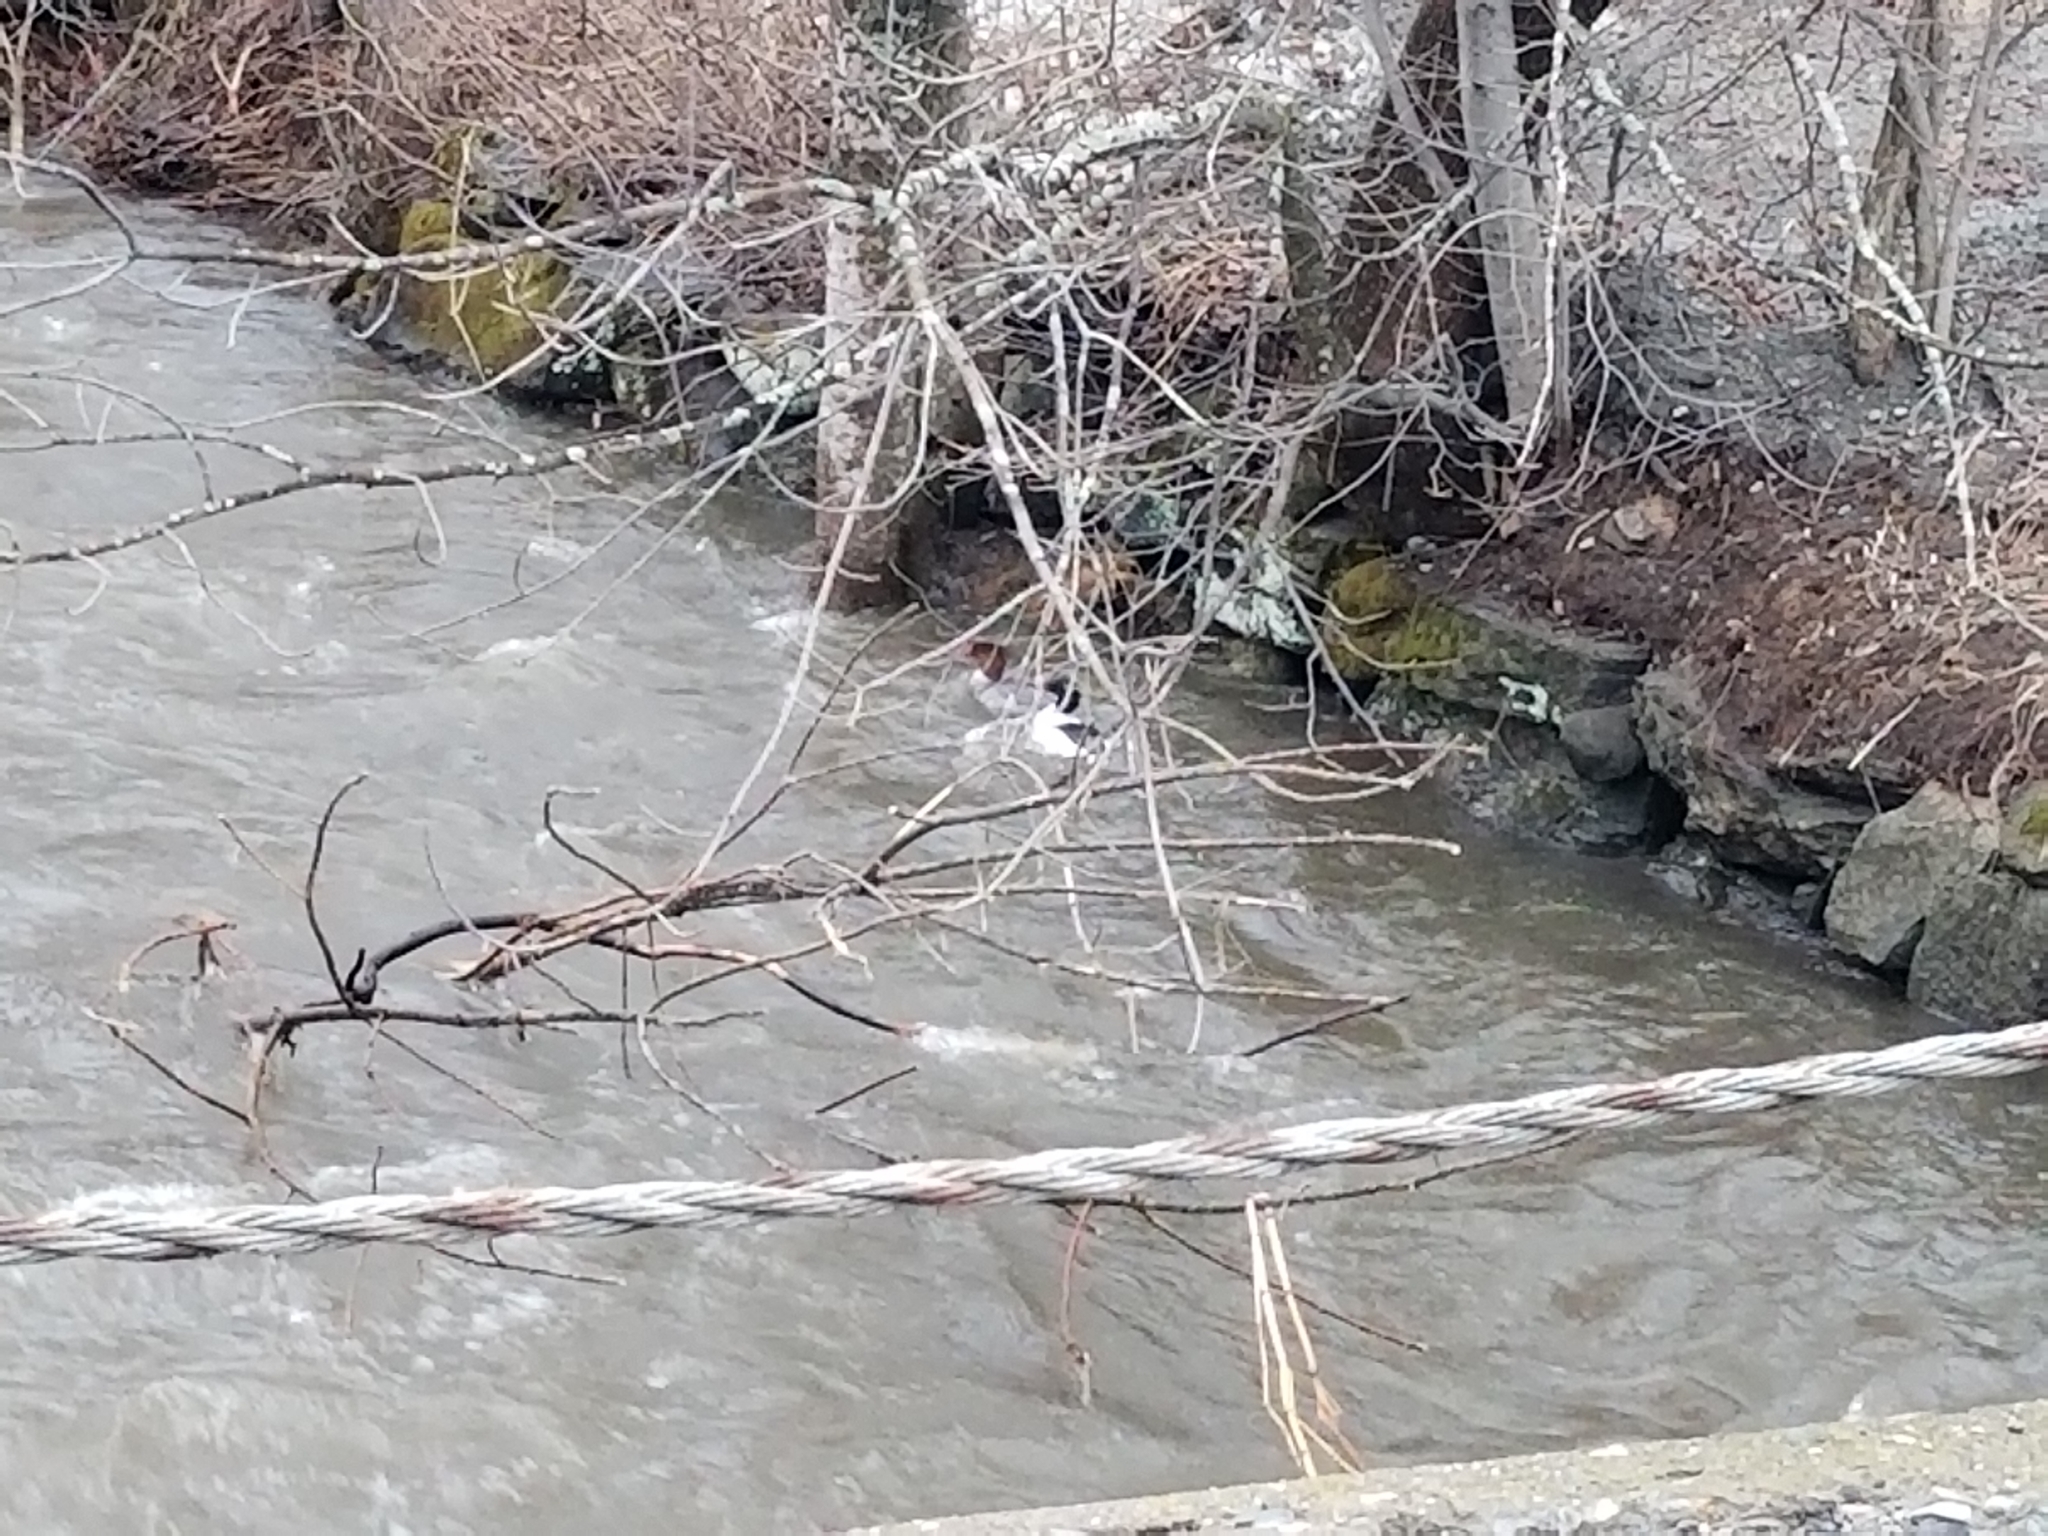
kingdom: Animalia
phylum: Chordata
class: Aves
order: Anseriformes
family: Anatidae
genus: Mergus
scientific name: Mergus merganser
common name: Common merganser
